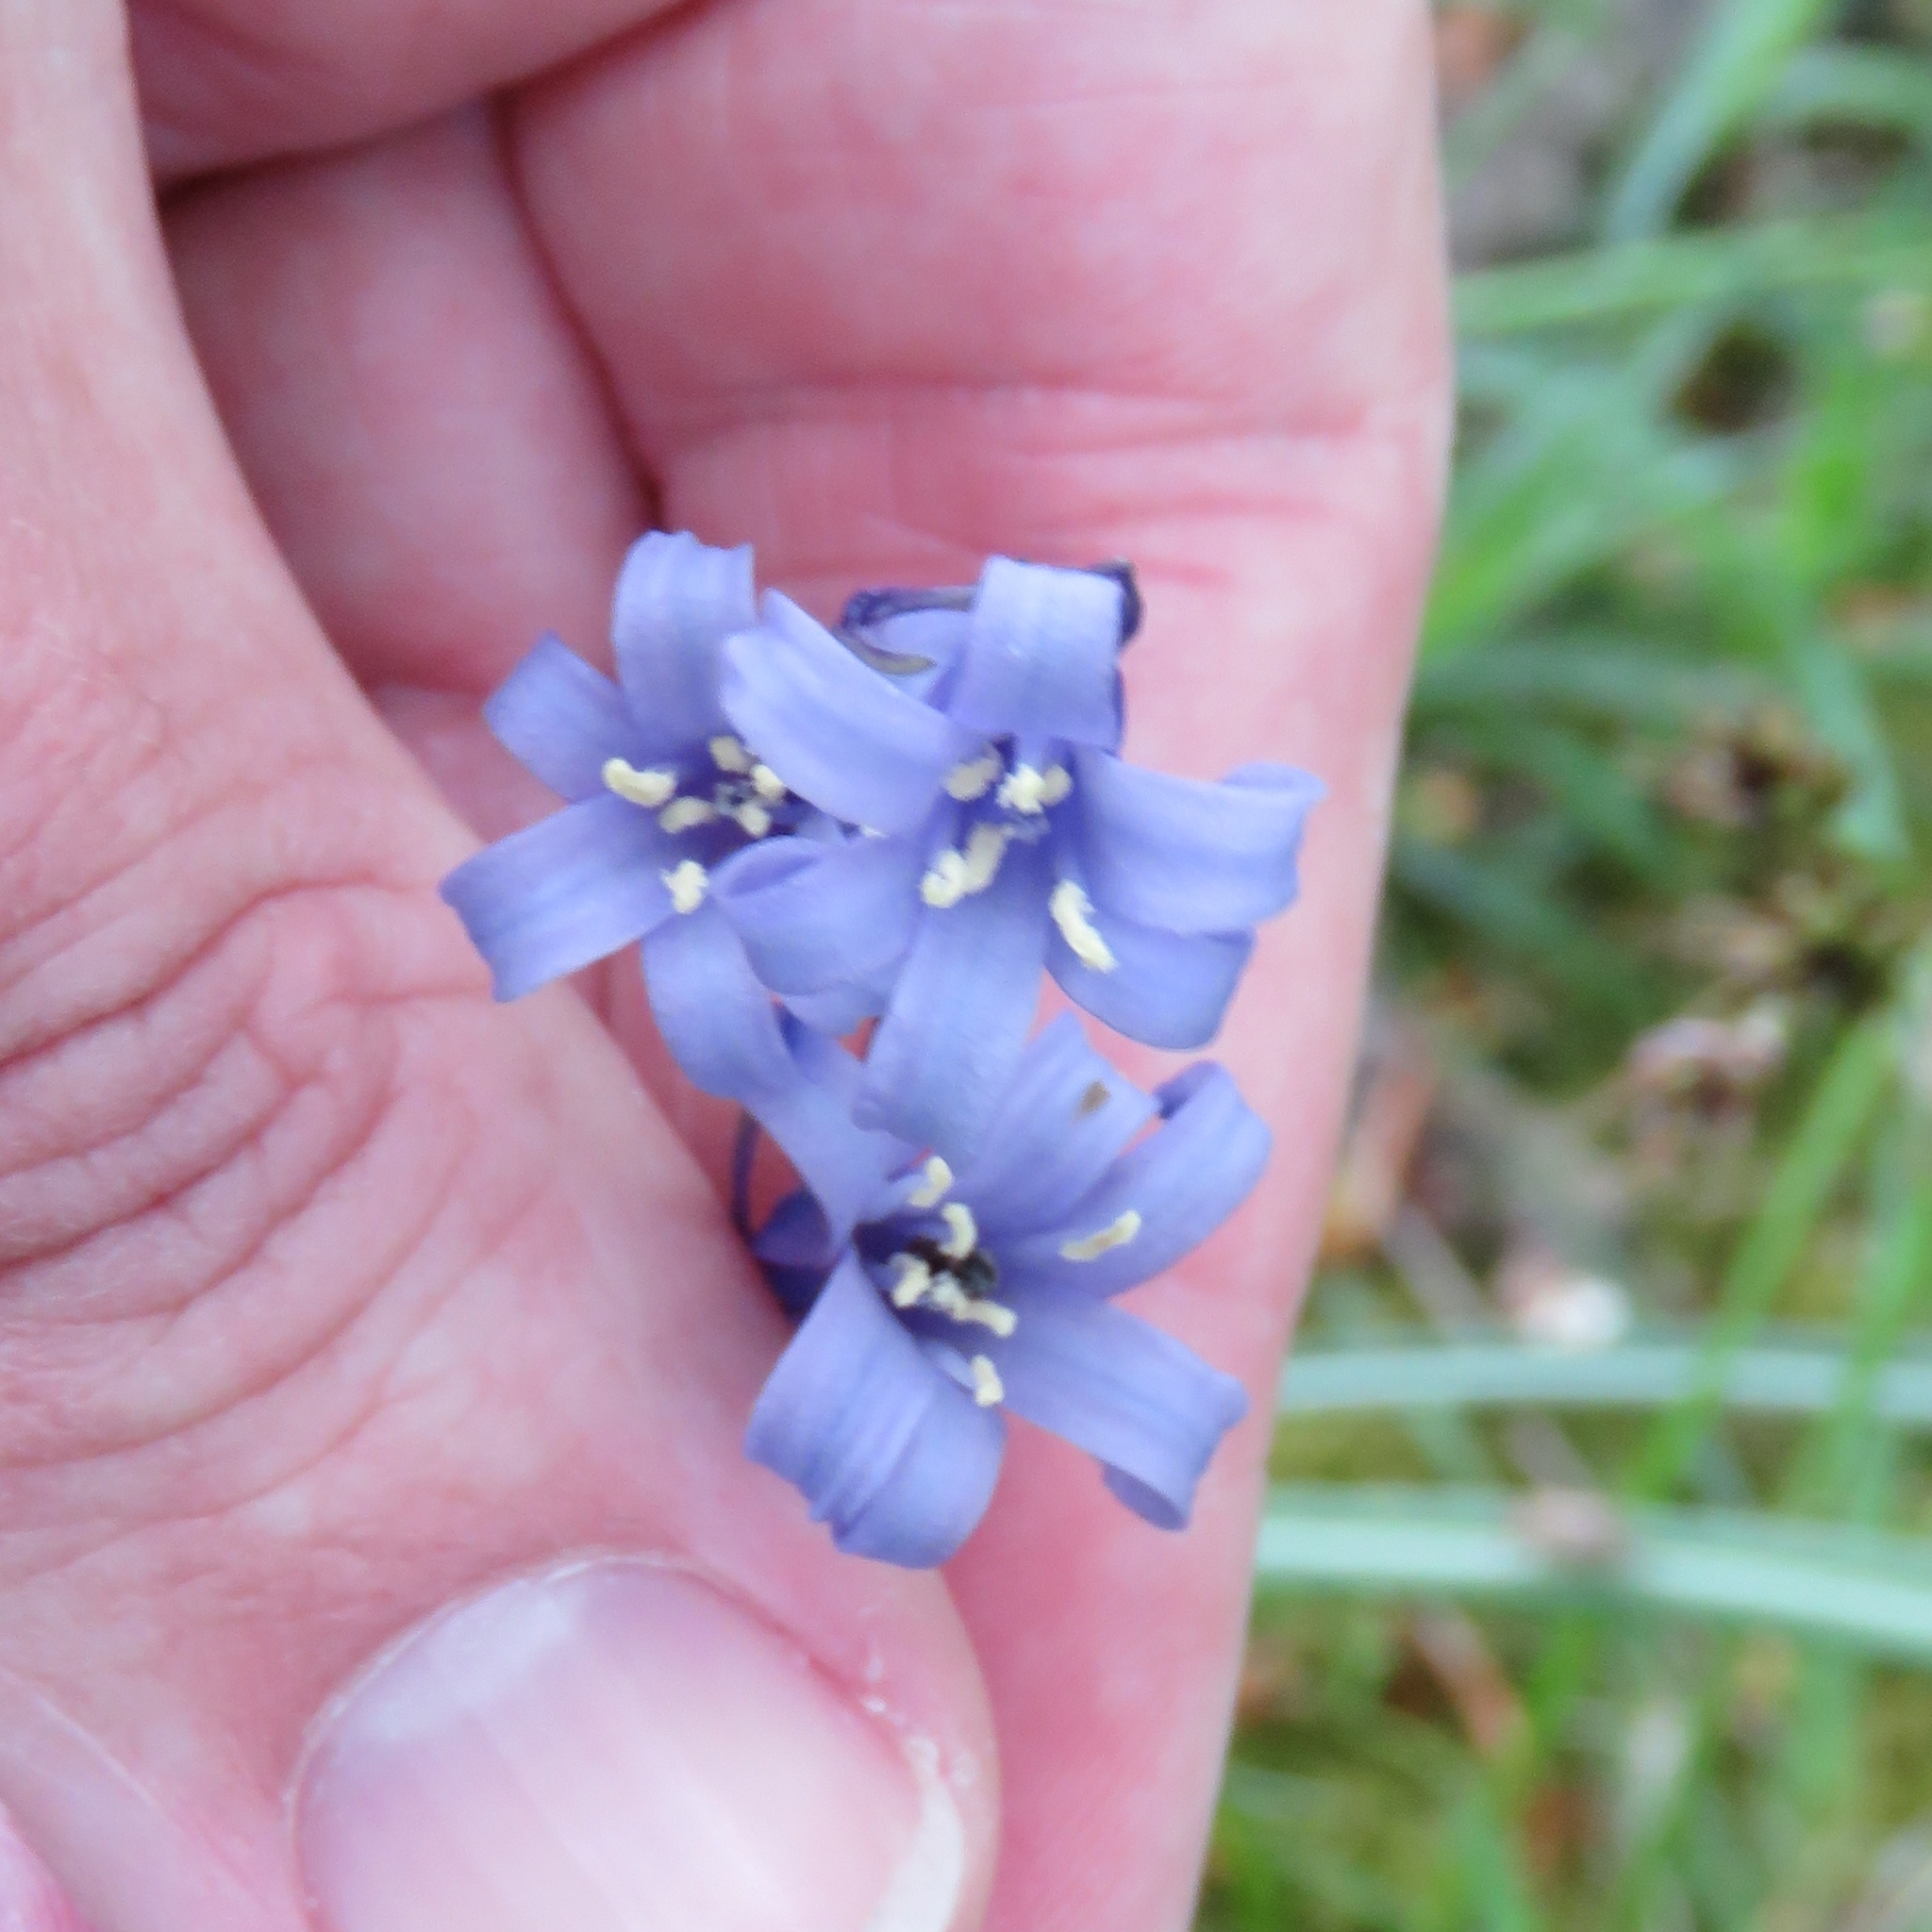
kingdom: Plantae
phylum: Tracheophyta
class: Liliopsida
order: Asparagales
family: Asparagaceae
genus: Hyacinthoides
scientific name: Hyacinthoides non-scripta
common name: Bluebell
